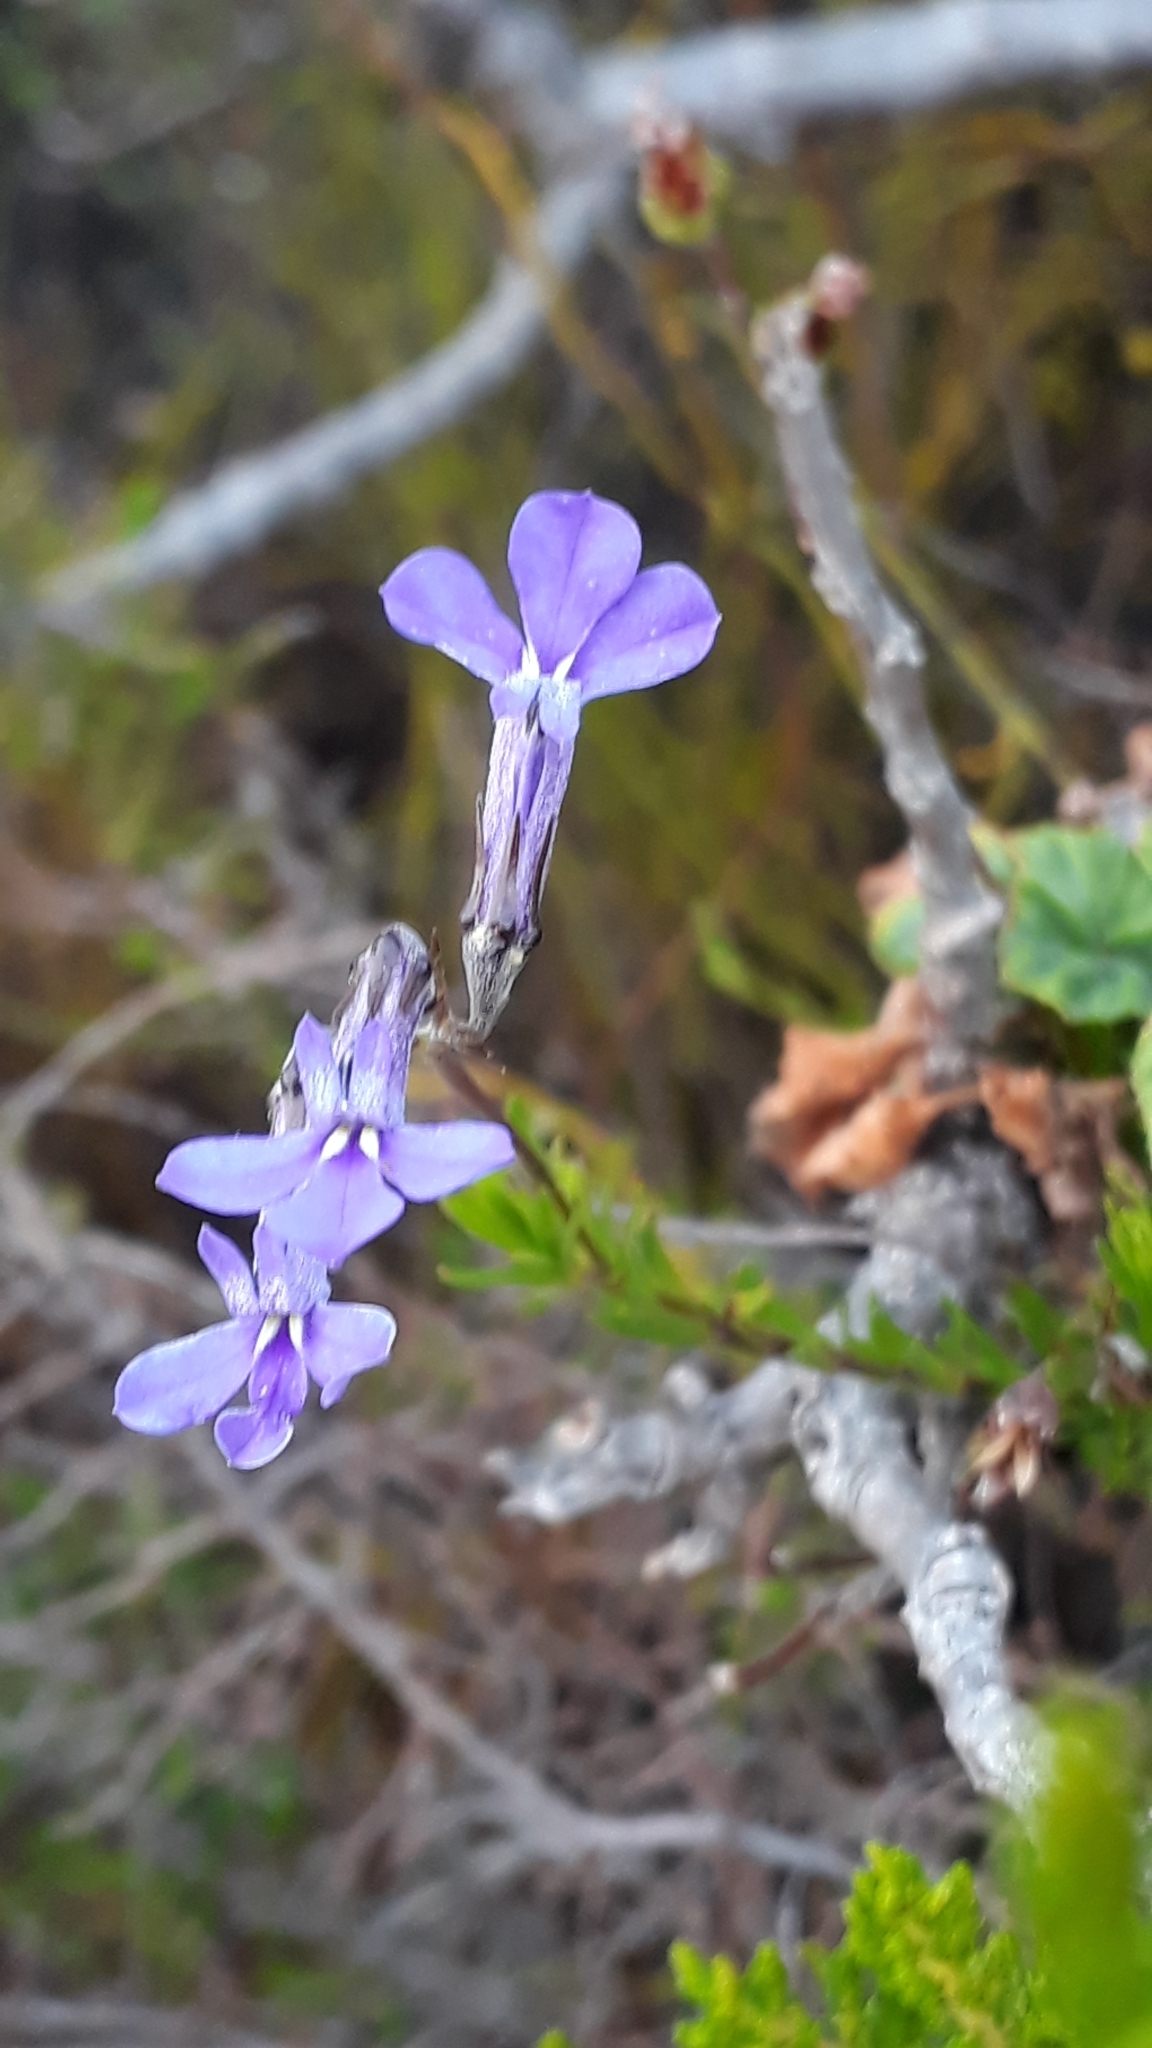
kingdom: Plantae
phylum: Tracheophyta
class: Magnoliopsida
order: Asterales
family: Campanulaceae
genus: Lobelia
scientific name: Lobelia pinifolia
